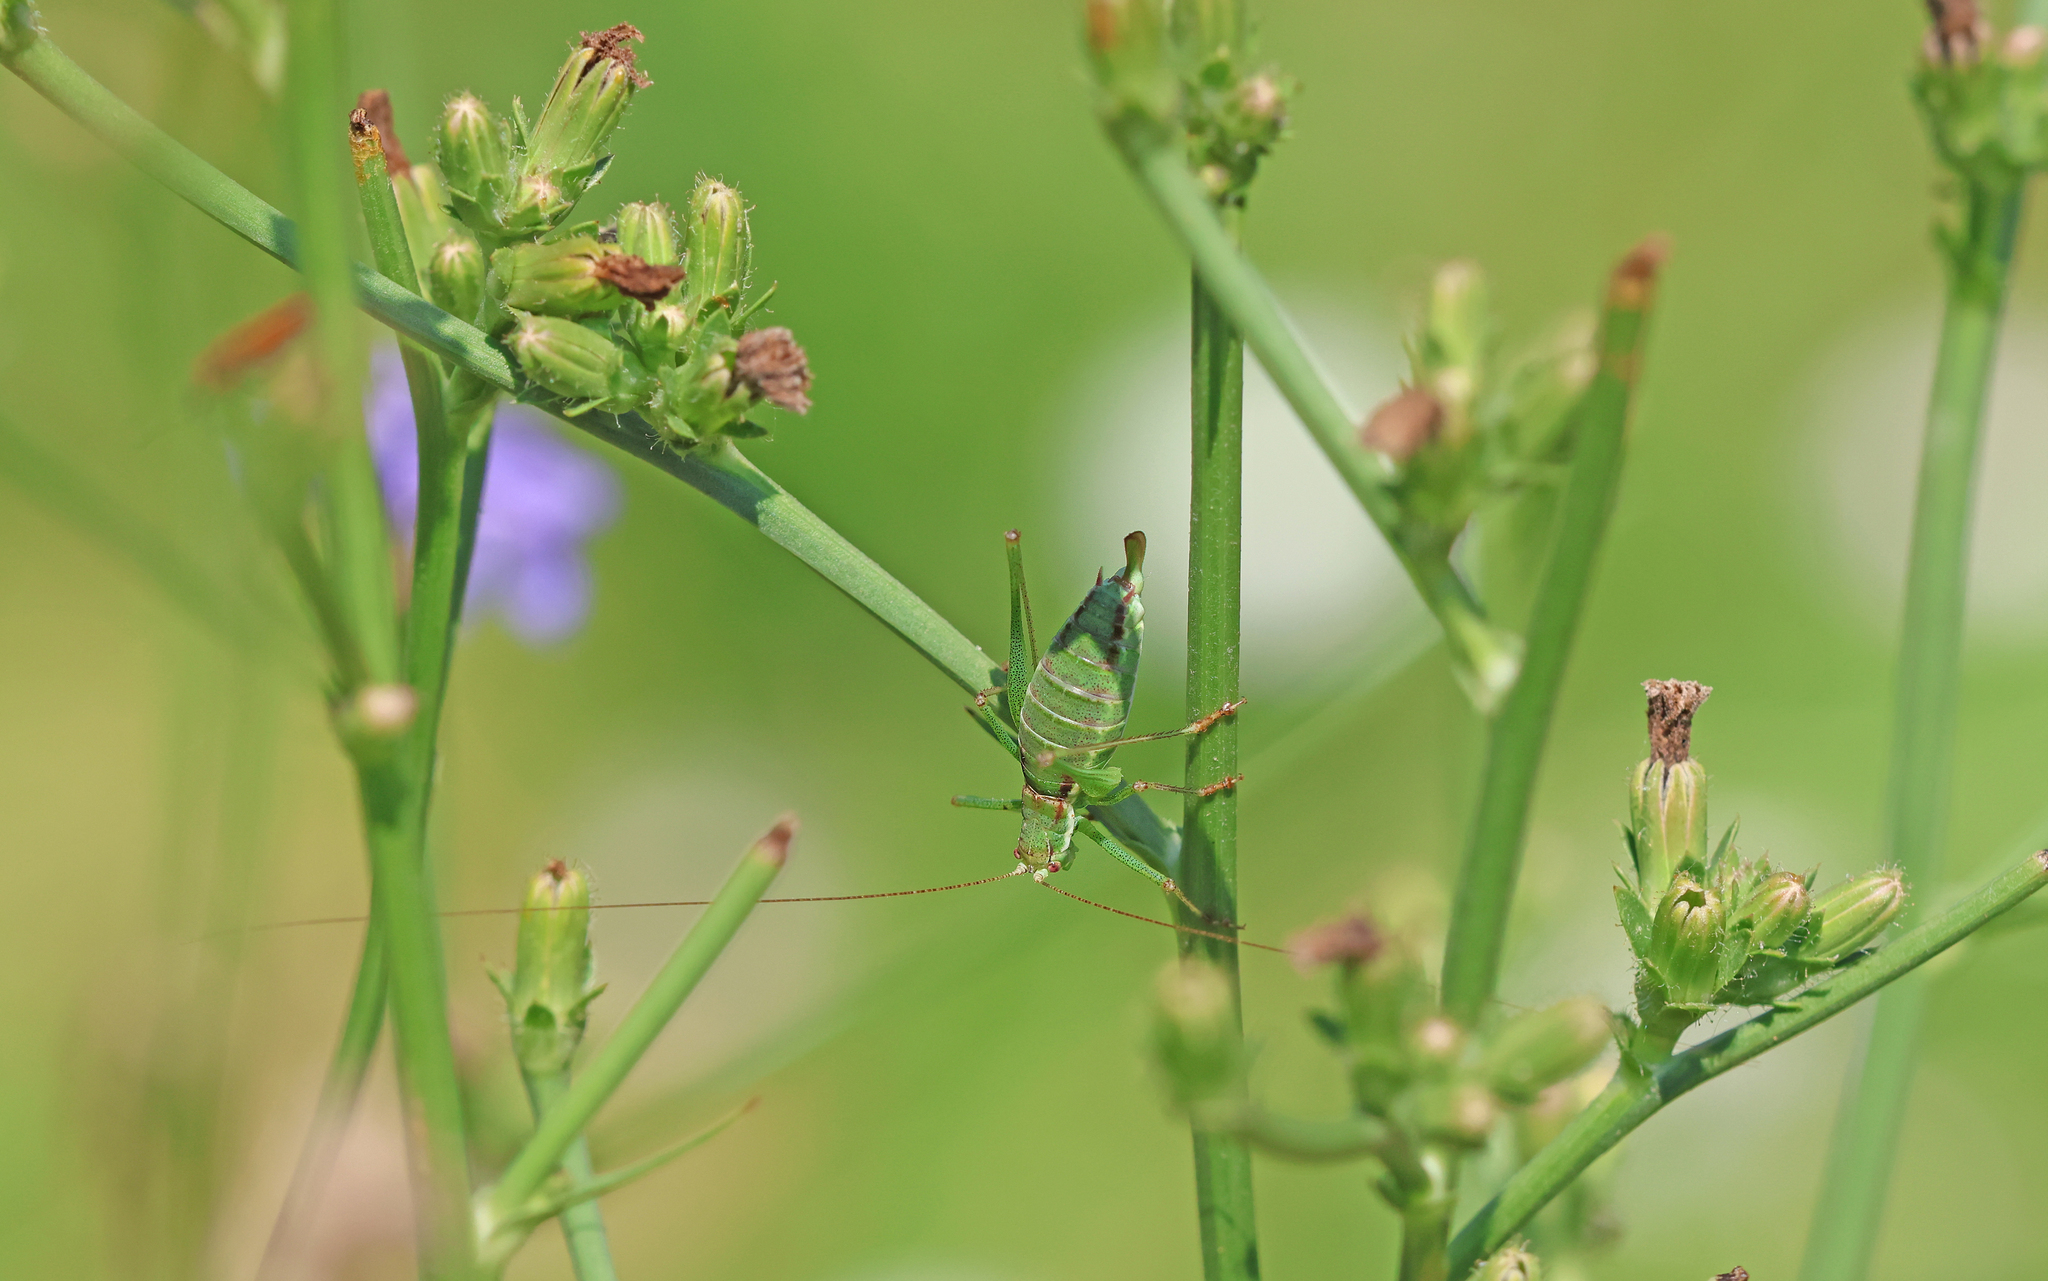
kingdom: Animalia
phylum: Arthropoda
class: Insecta
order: Orthoptera
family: Tettigoniidae
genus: Leptophyes
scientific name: Leptophyes albovittata
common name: Striped bush-cricket
